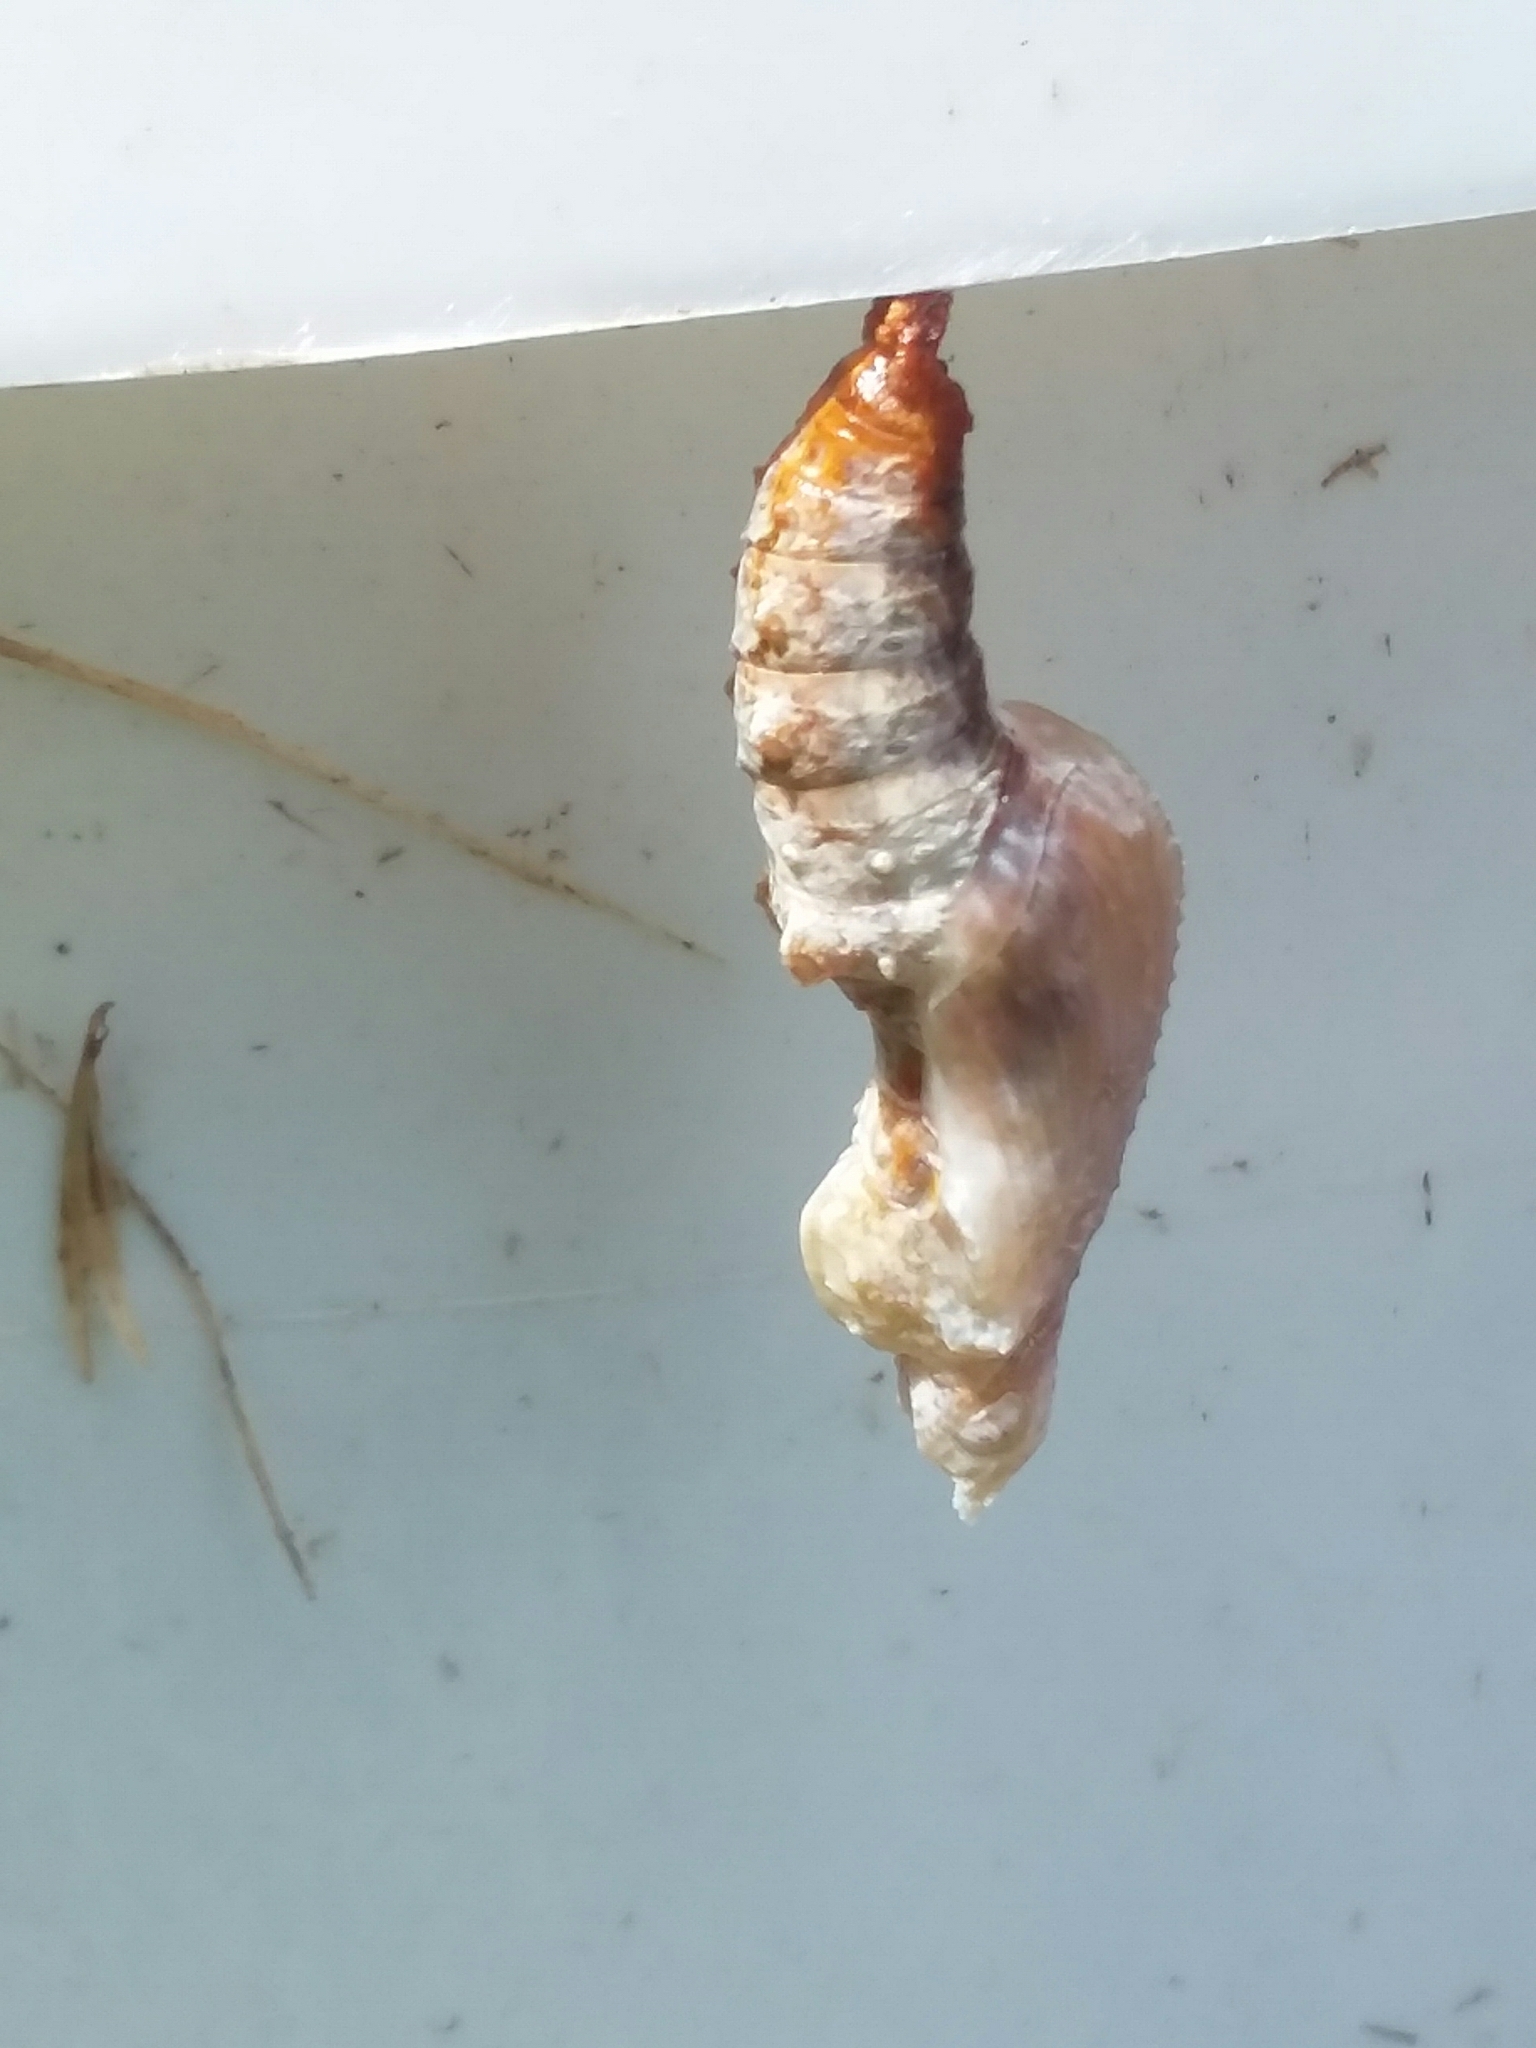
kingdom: Animalia
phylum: Arthropoda
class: Insecta
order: Lepidoptera
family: Nymphalidae
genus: Dione
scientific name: Dione vanillae
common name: Gulf fritillary
